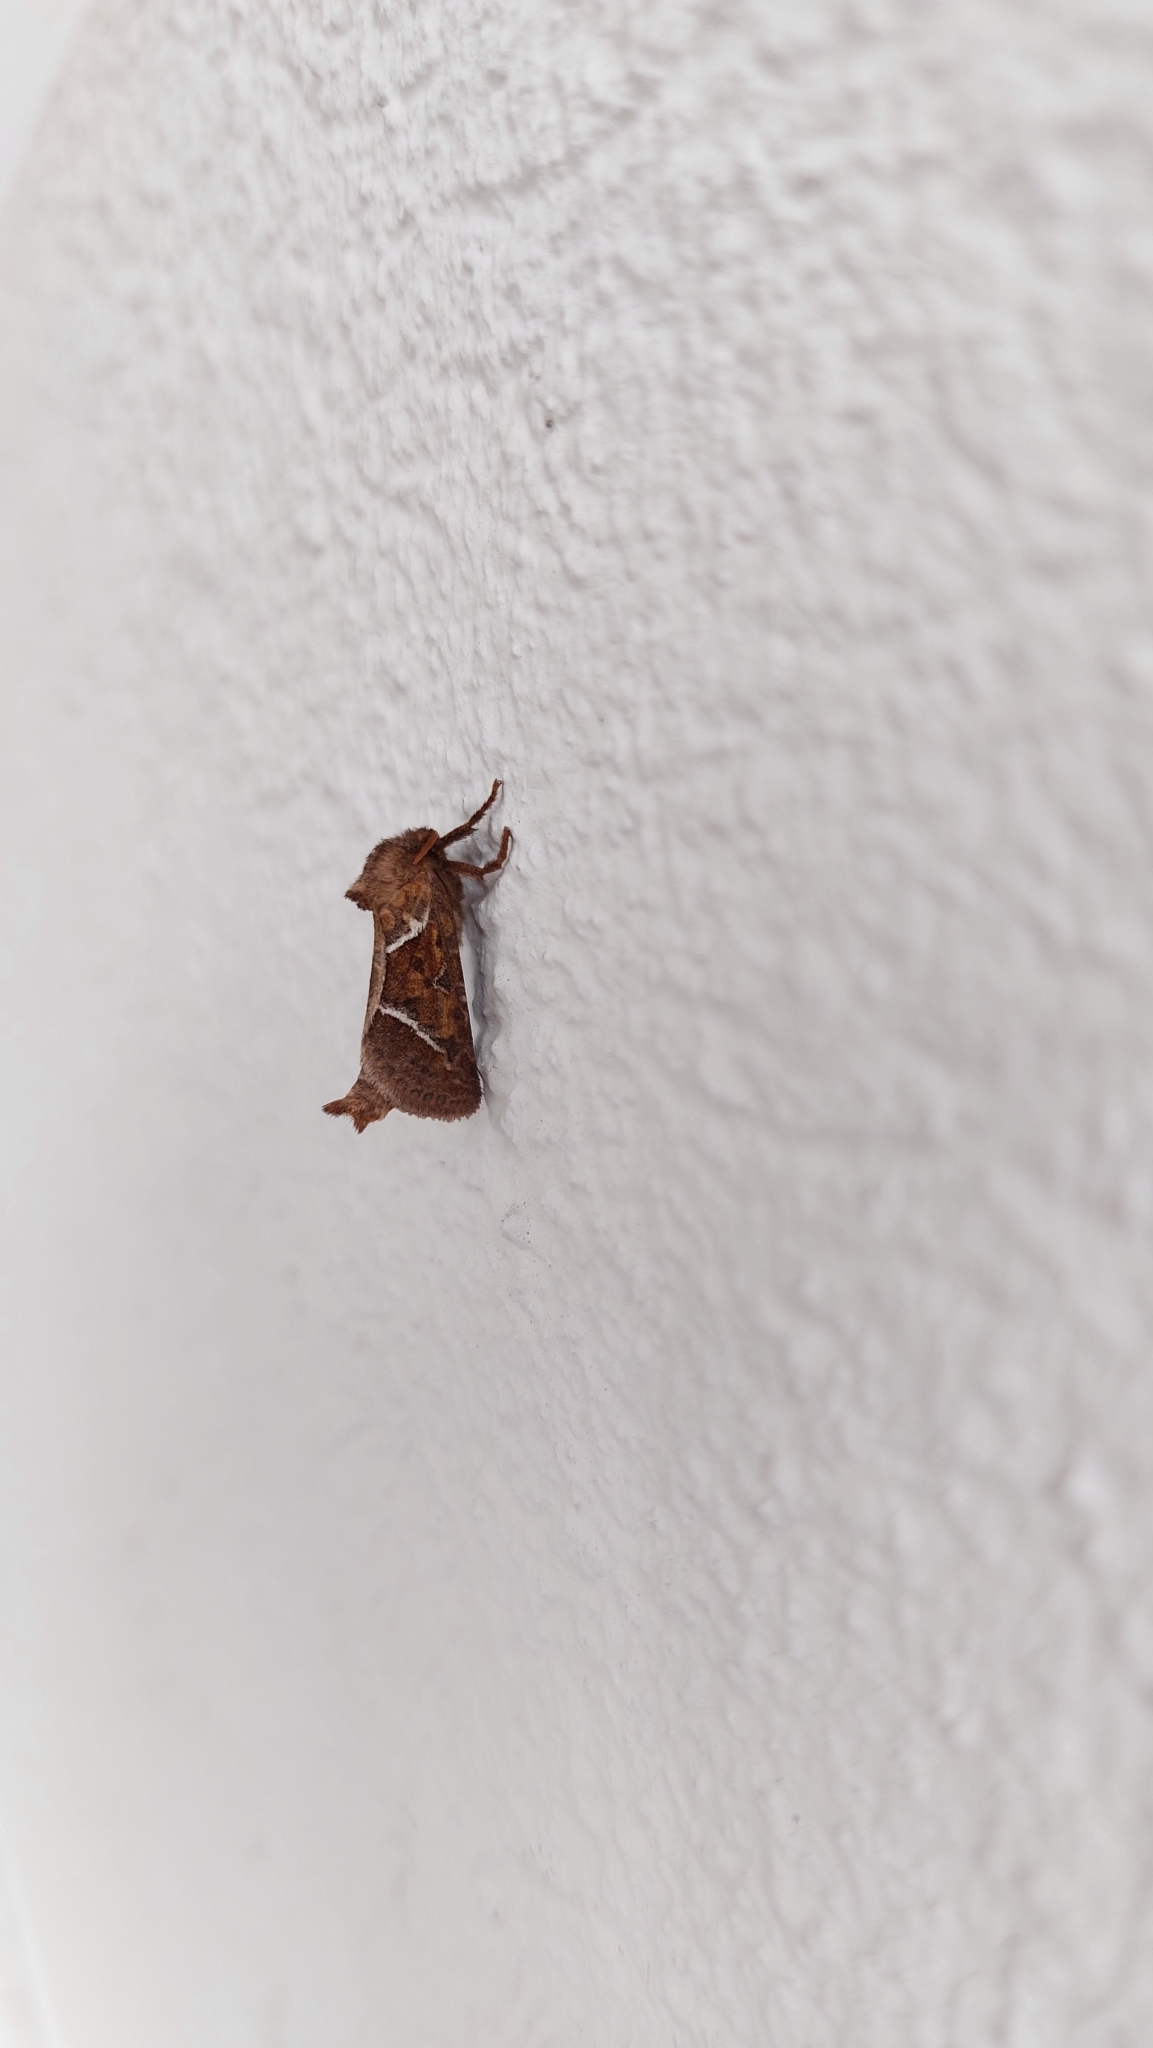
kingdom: Animalia
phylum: Arthropoda
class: Insecta
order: Lepidoptera
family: Hepialidae
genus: Triodia
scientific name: Triodia sylvina
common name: Orange swift
